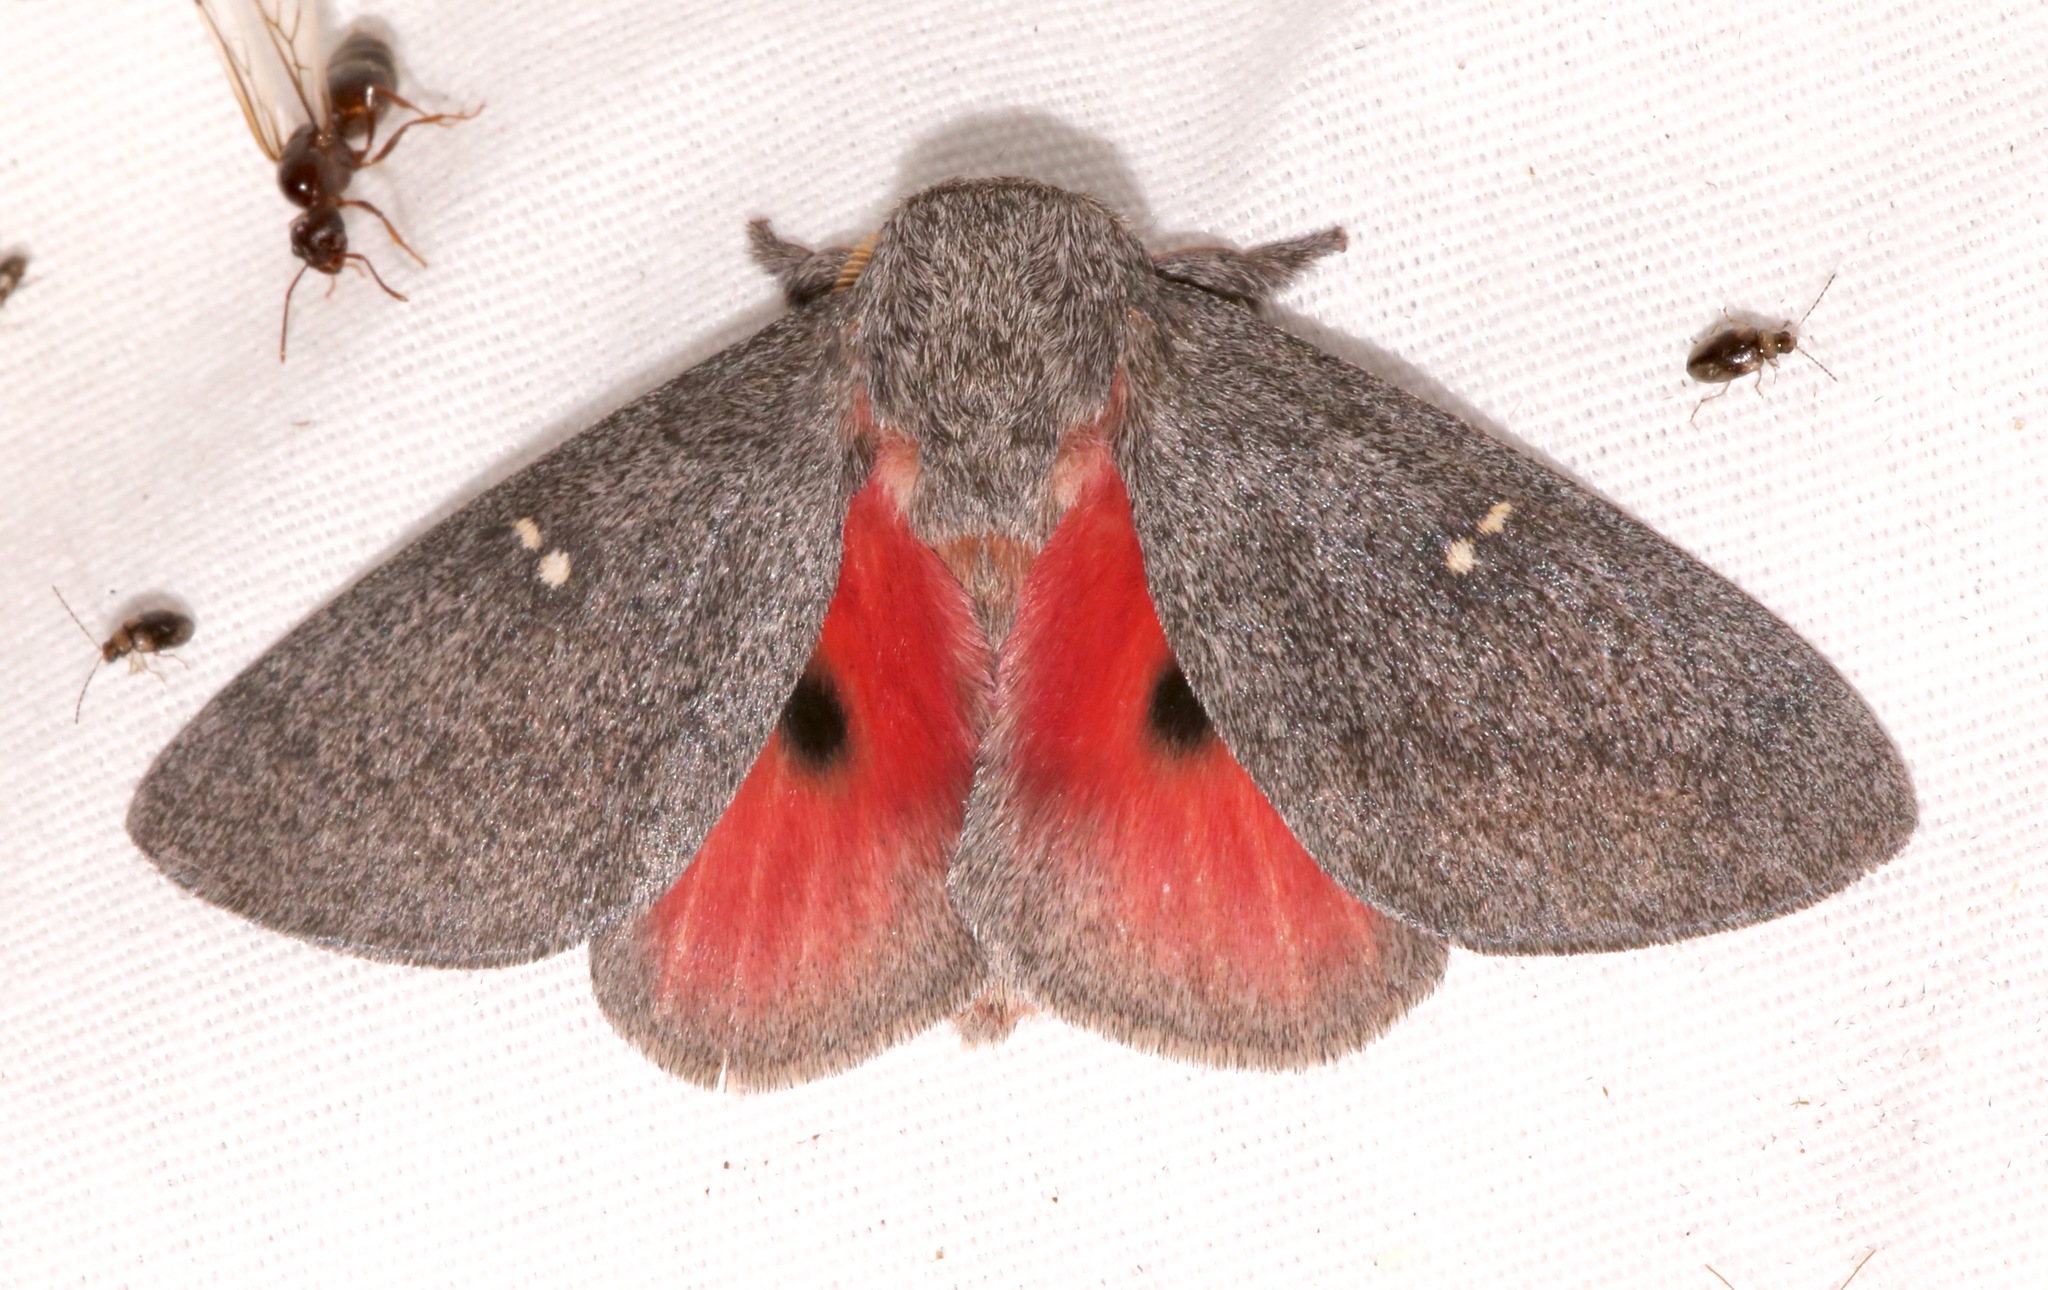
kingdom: Animalia
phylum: Arthropoda
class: Insecta
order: Lepidoptera
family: Saturniidae
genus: Syssphinx
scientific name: Syssphinx hubbardi
